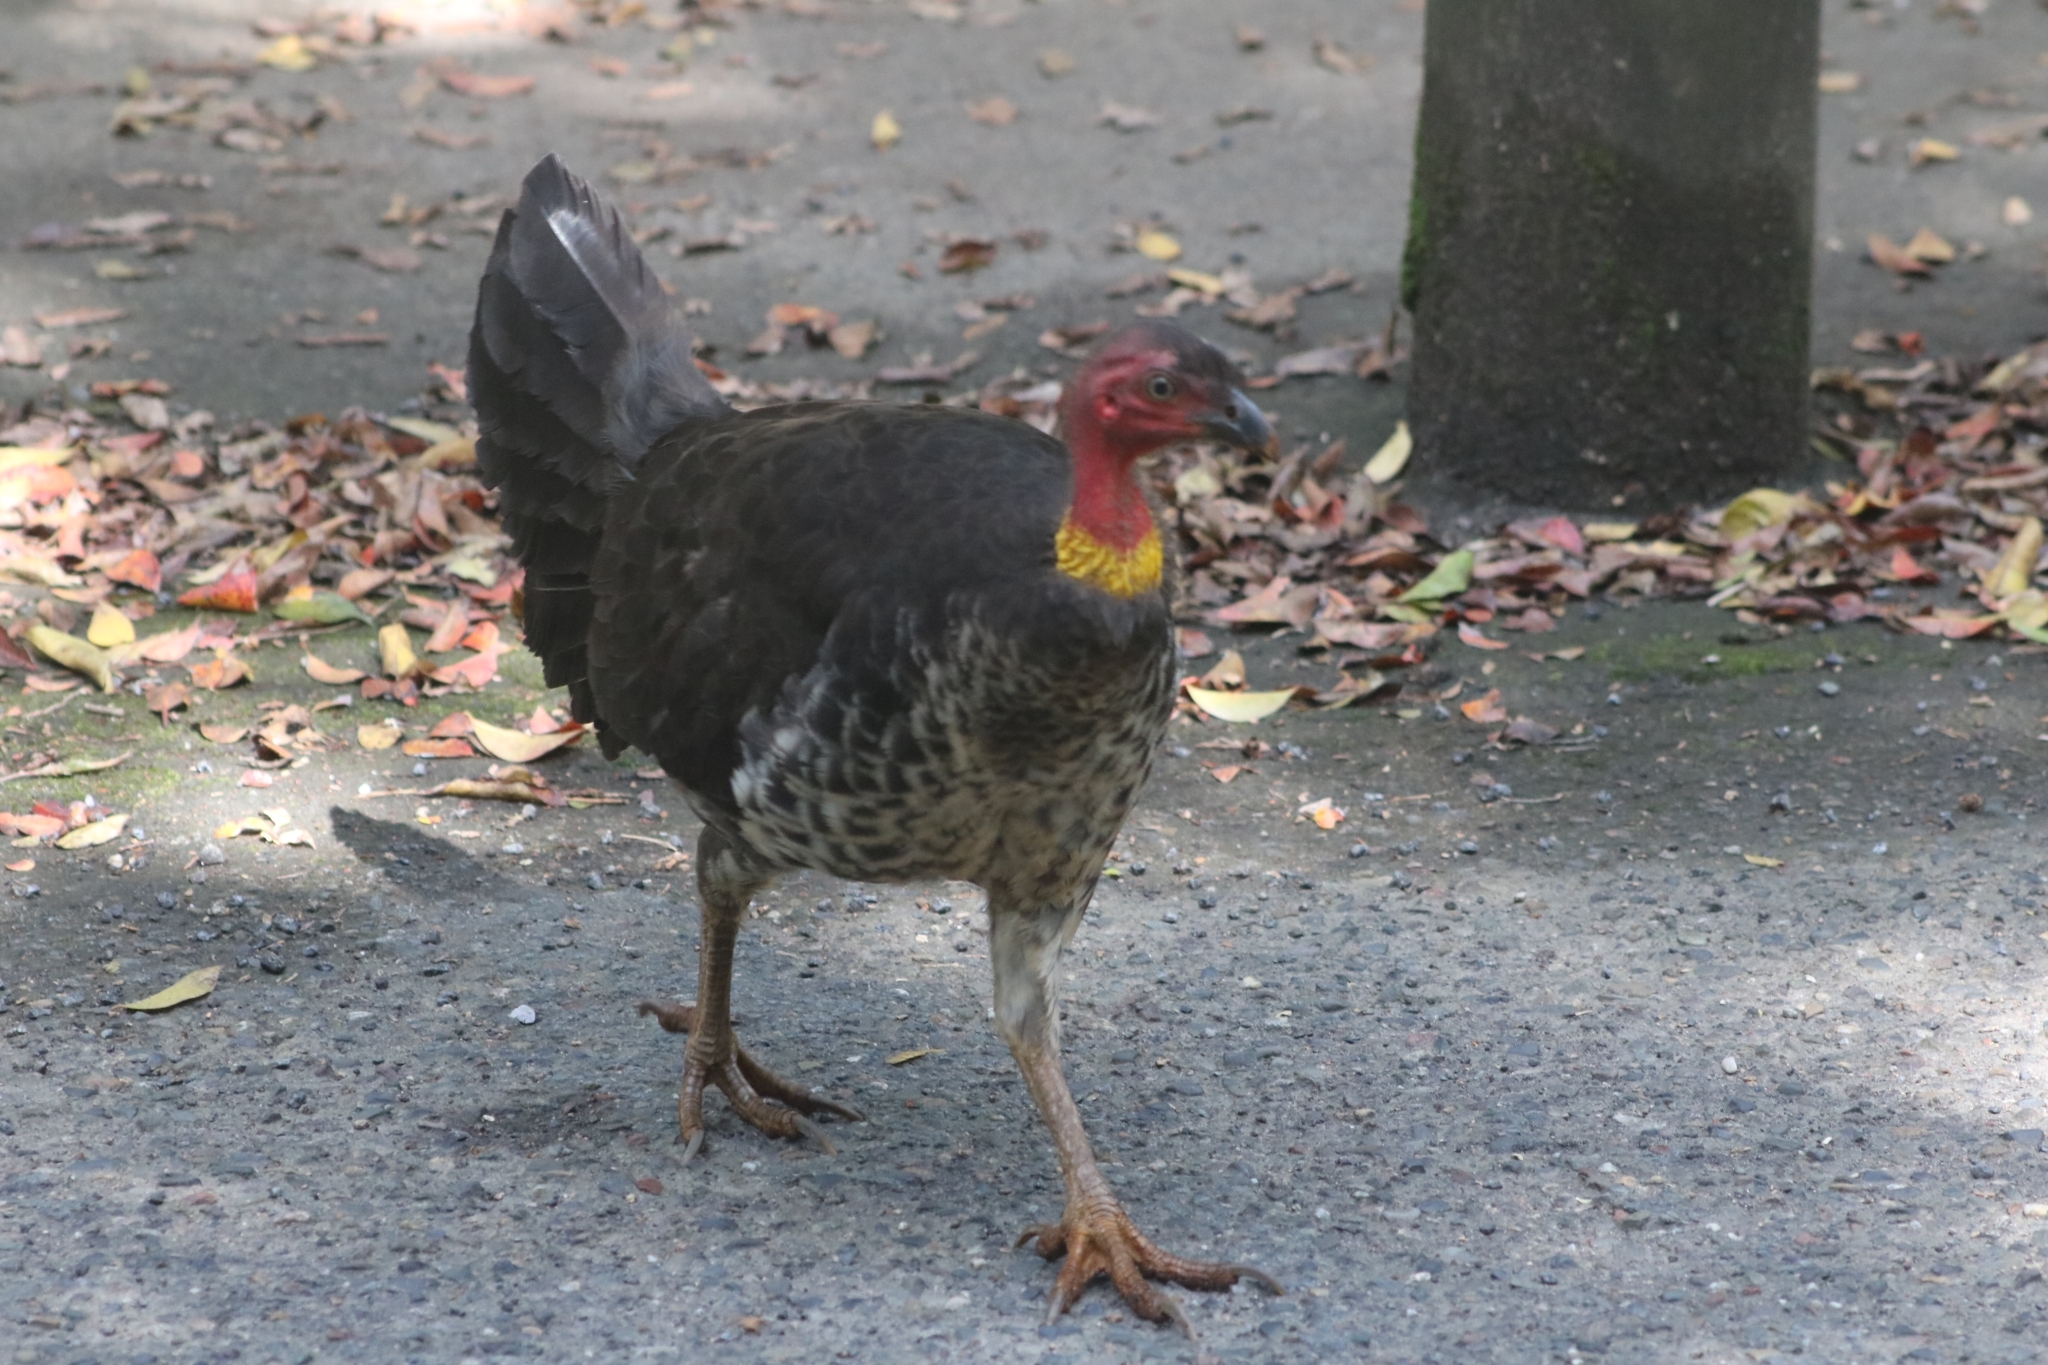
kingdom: Animalia
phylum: Chordata
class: Aves
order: Galliformes
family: Megapodiidae
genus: Alectura
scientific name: Alectura lathami
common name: Australian brushturkey
